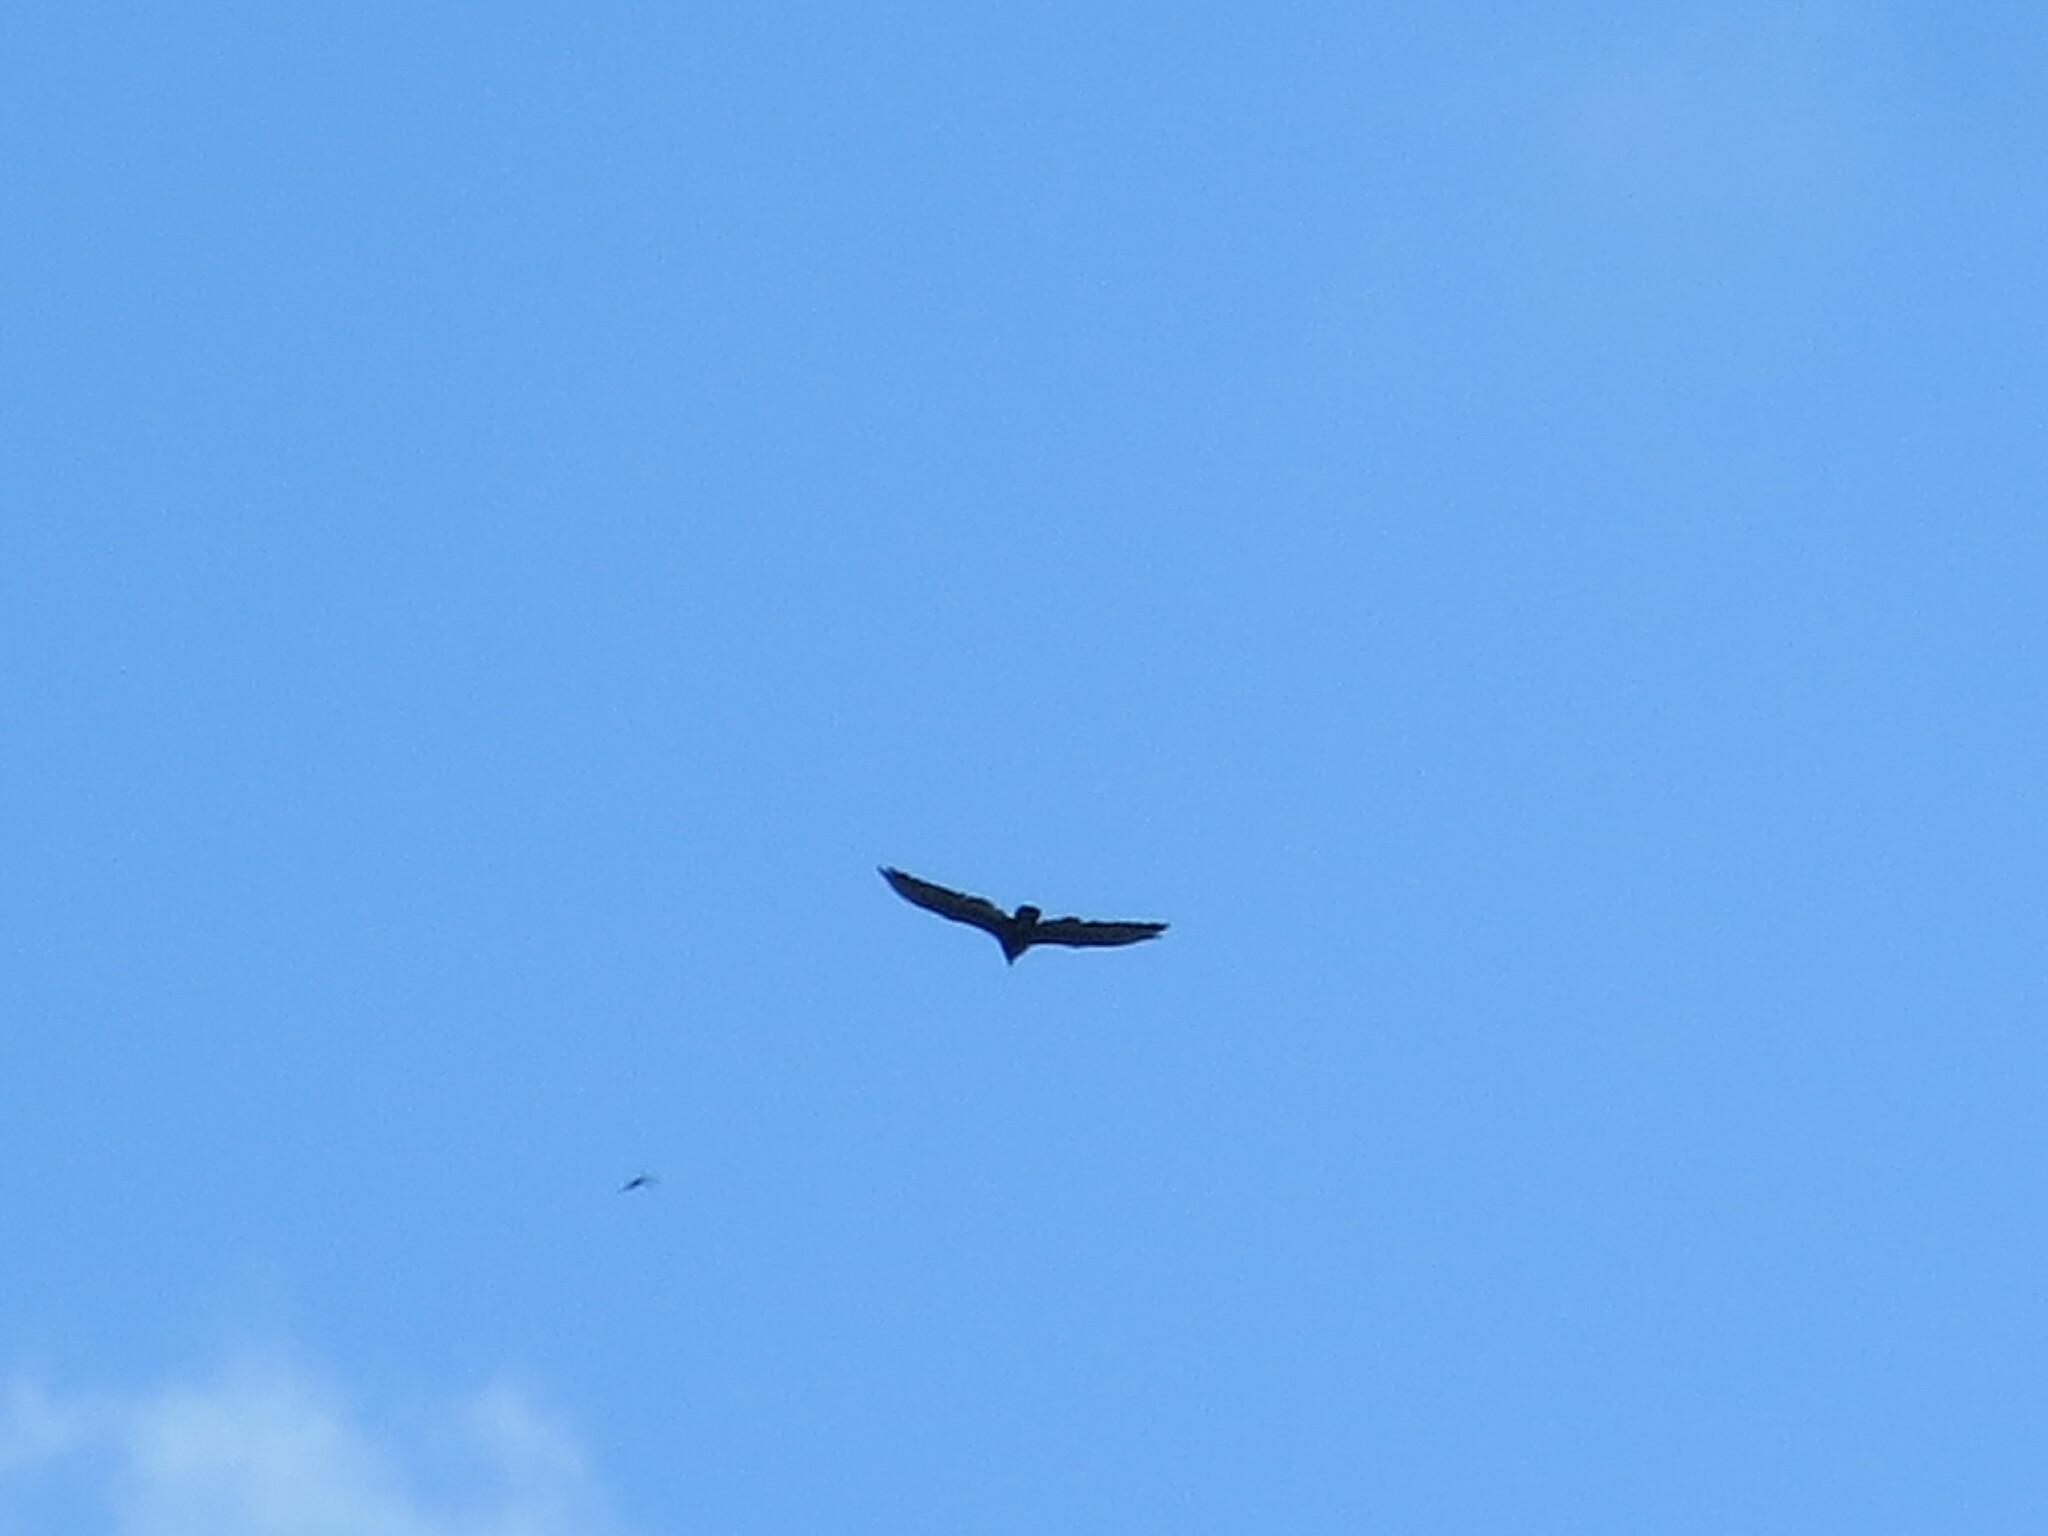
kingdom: Animalia
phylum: Chordata
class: Aves
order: Accipitriformes
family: Cathartidae
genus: Cathartes
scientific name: Cathartes aura
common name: Turkey vulture
